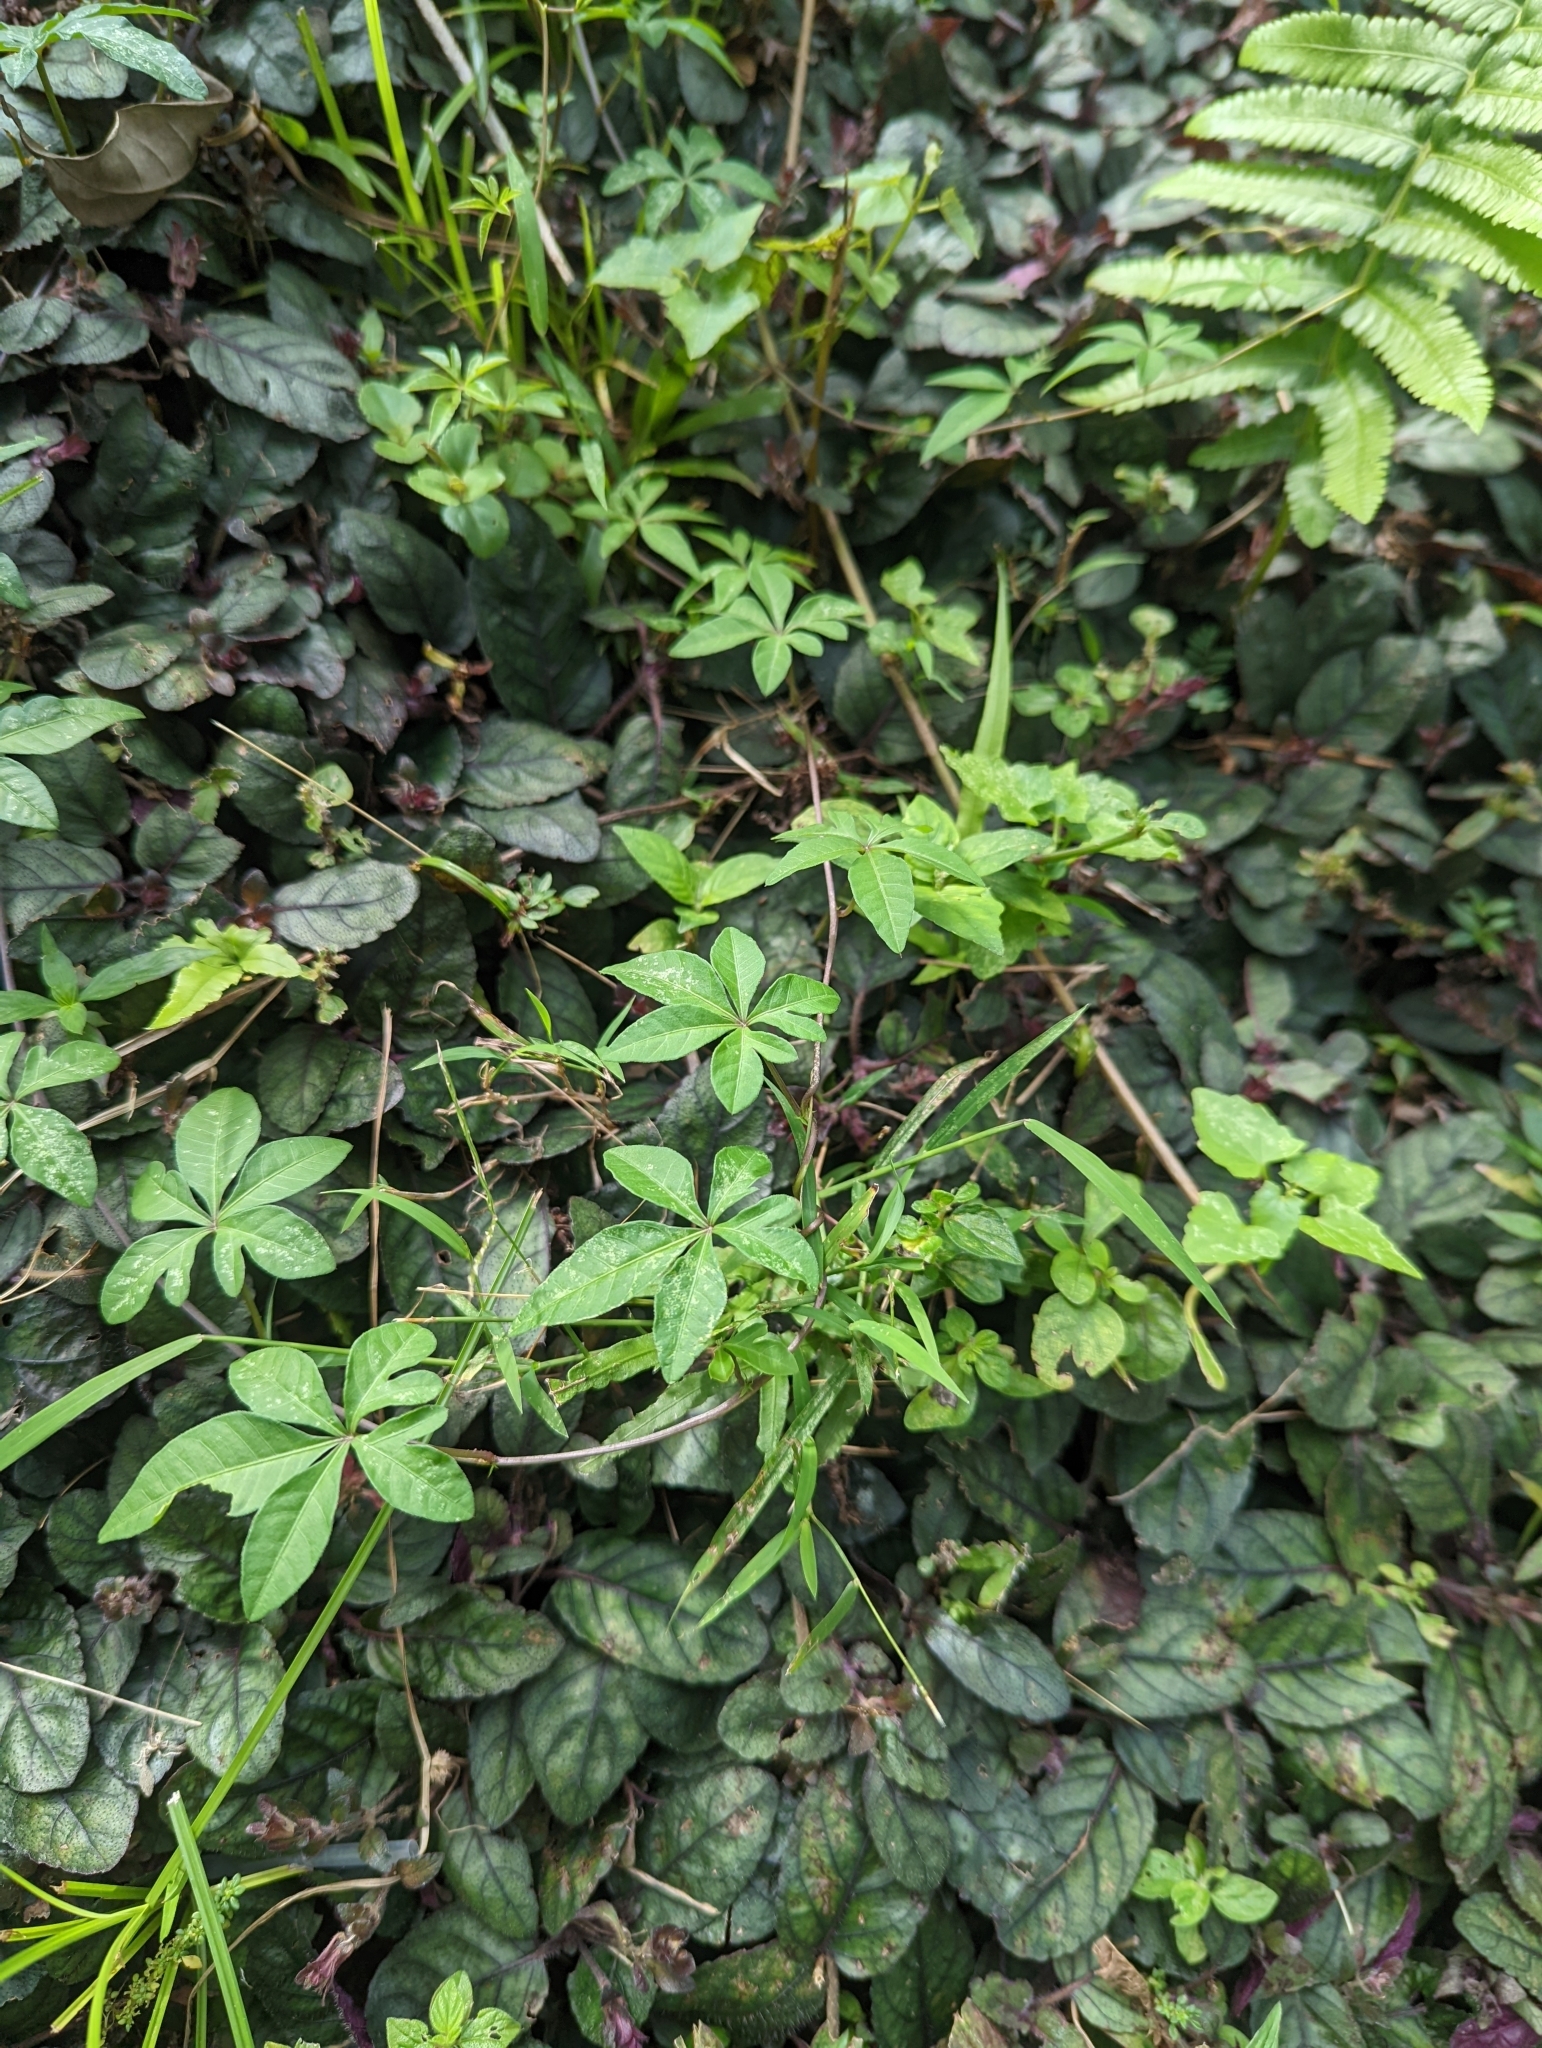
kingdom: Plantae
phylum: Tracheophyta
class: Magnoliopsida
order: Solanales
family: Convolvulaceae
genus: Ipomoea
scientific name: Ipomoea cairica
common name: Mile a minute vine
